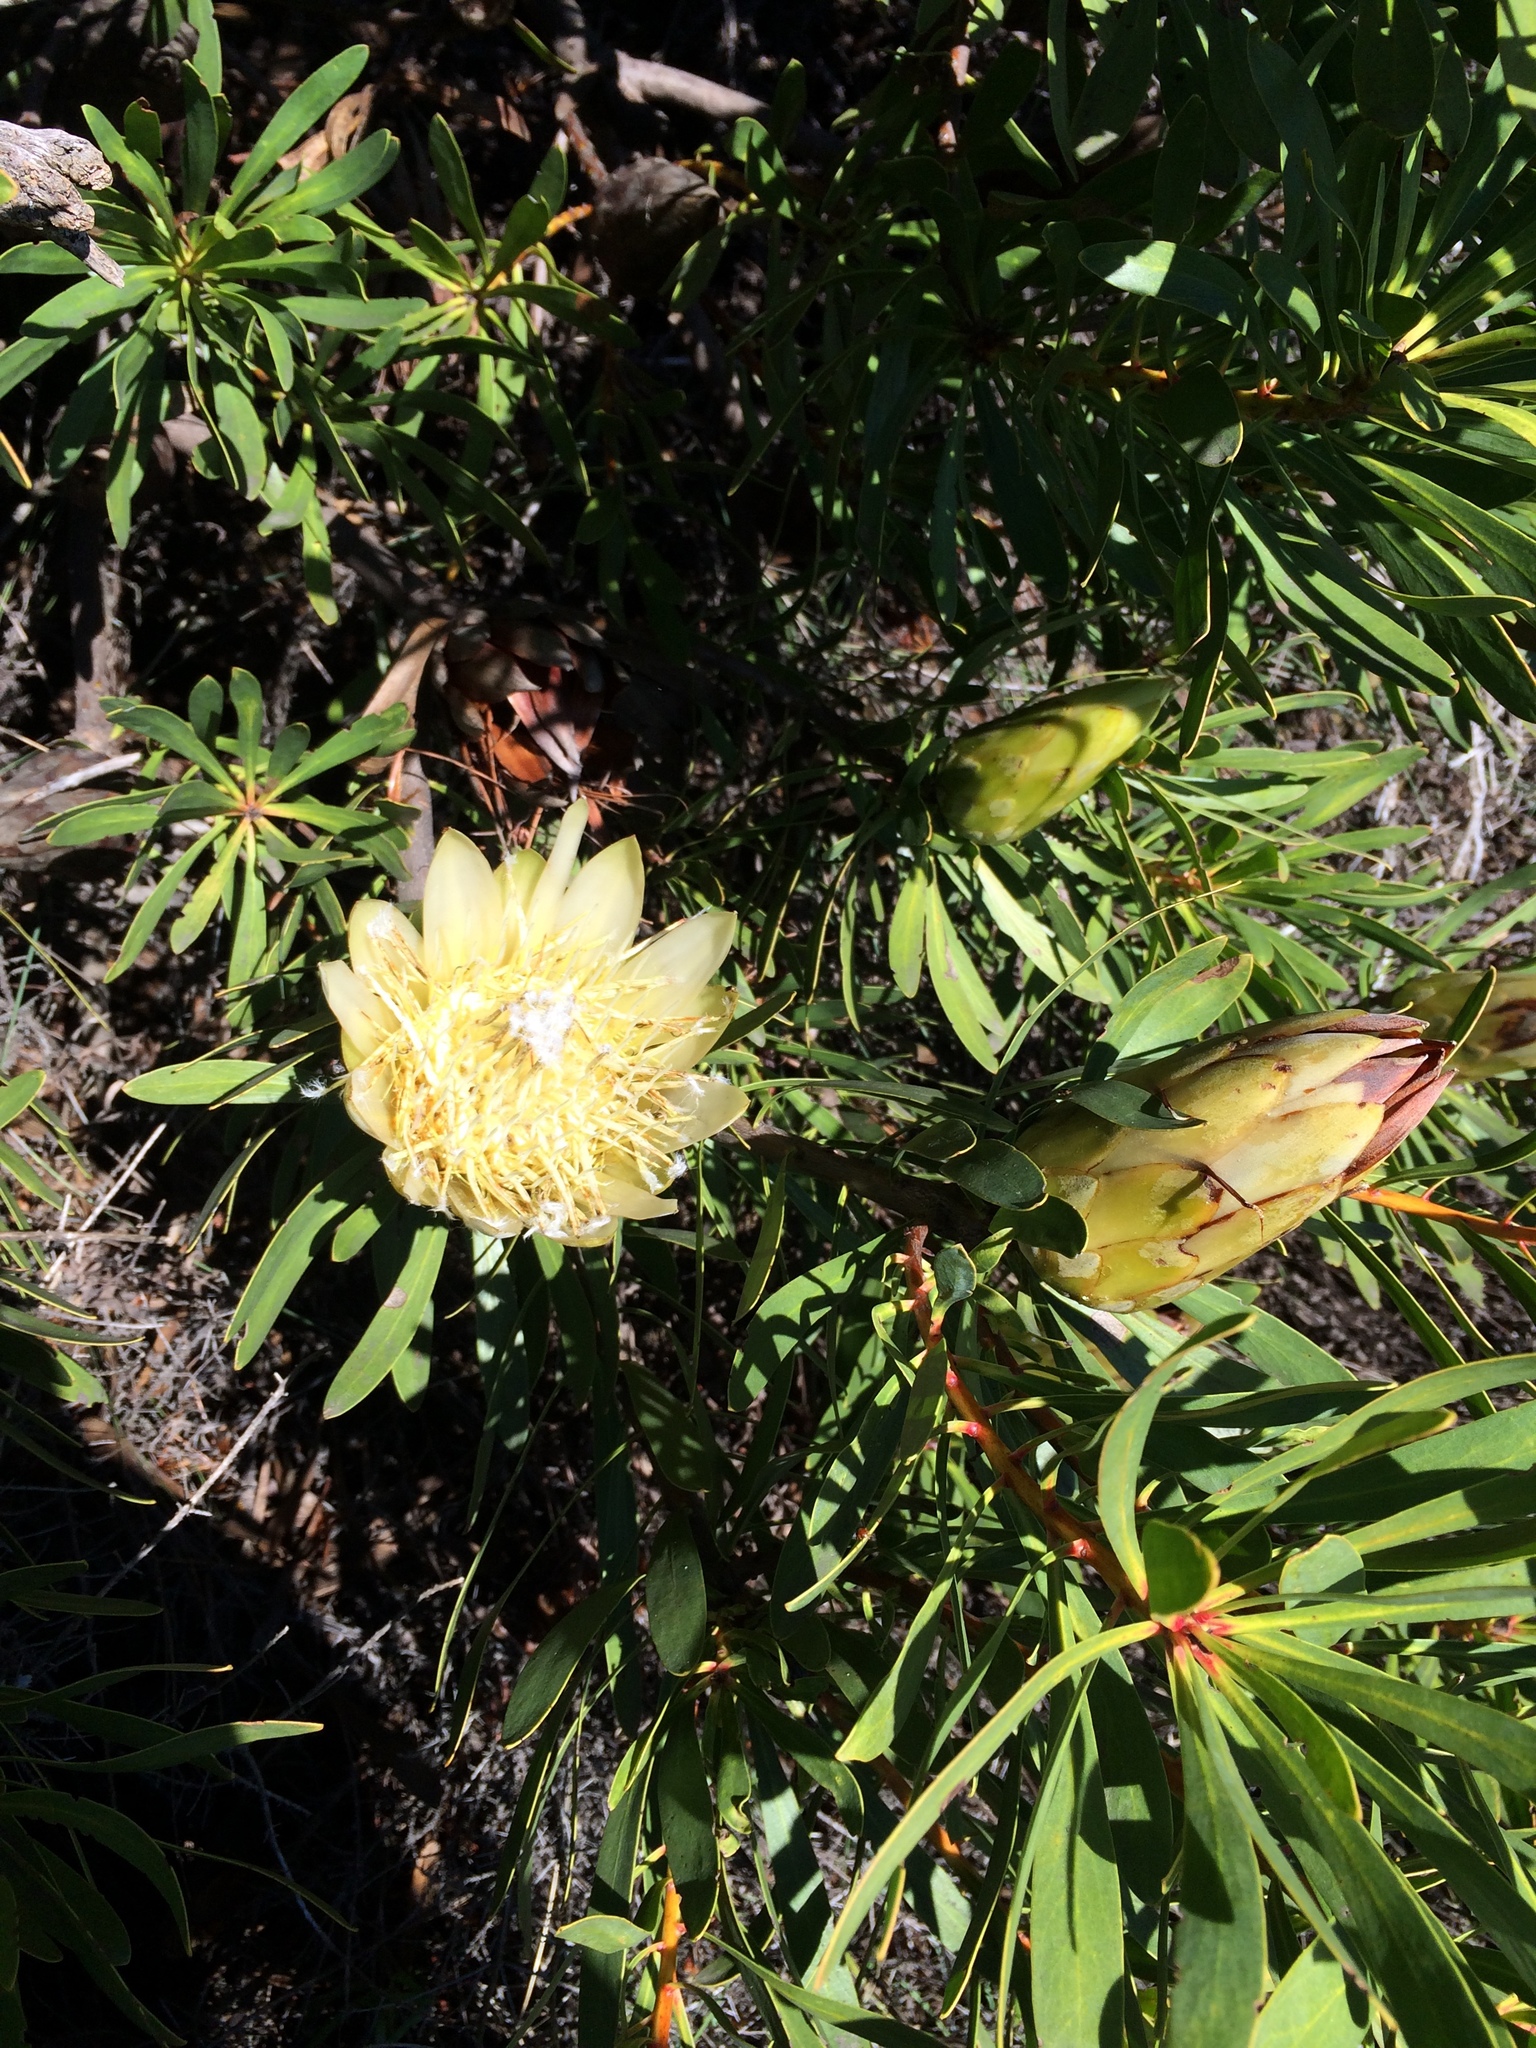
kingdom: Plantae
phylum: Tracheophyta
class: Magnoliopsida
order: Proteales
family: Proteaceae
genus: Protea
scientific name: Protea repens
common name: Sugarbush
